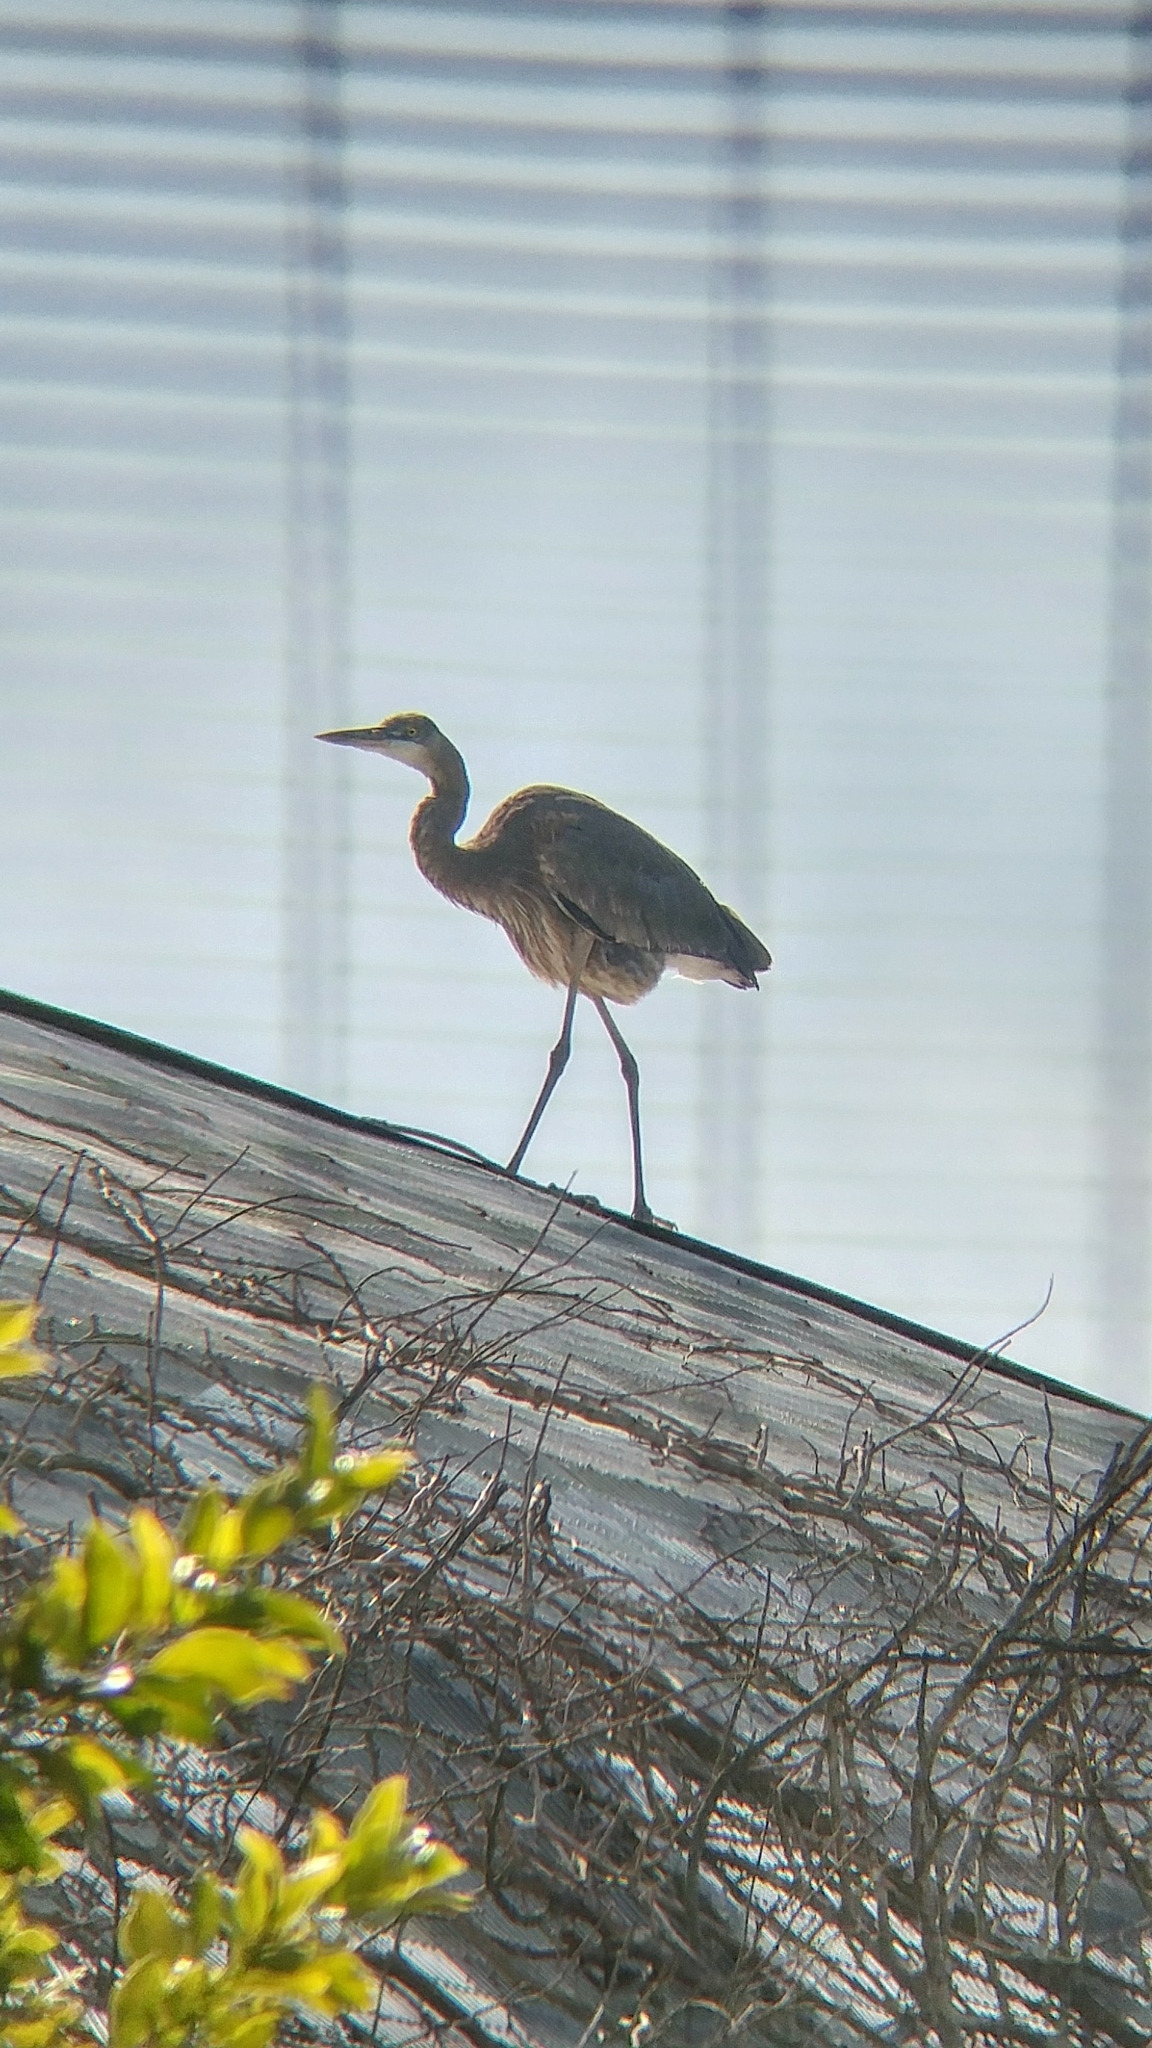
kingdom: Animalia
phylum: Chordata
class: Aves
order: Pelecaniformes
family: Ardeidae
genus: Ardea
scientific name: Ardea herodias
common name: Great blue heron
